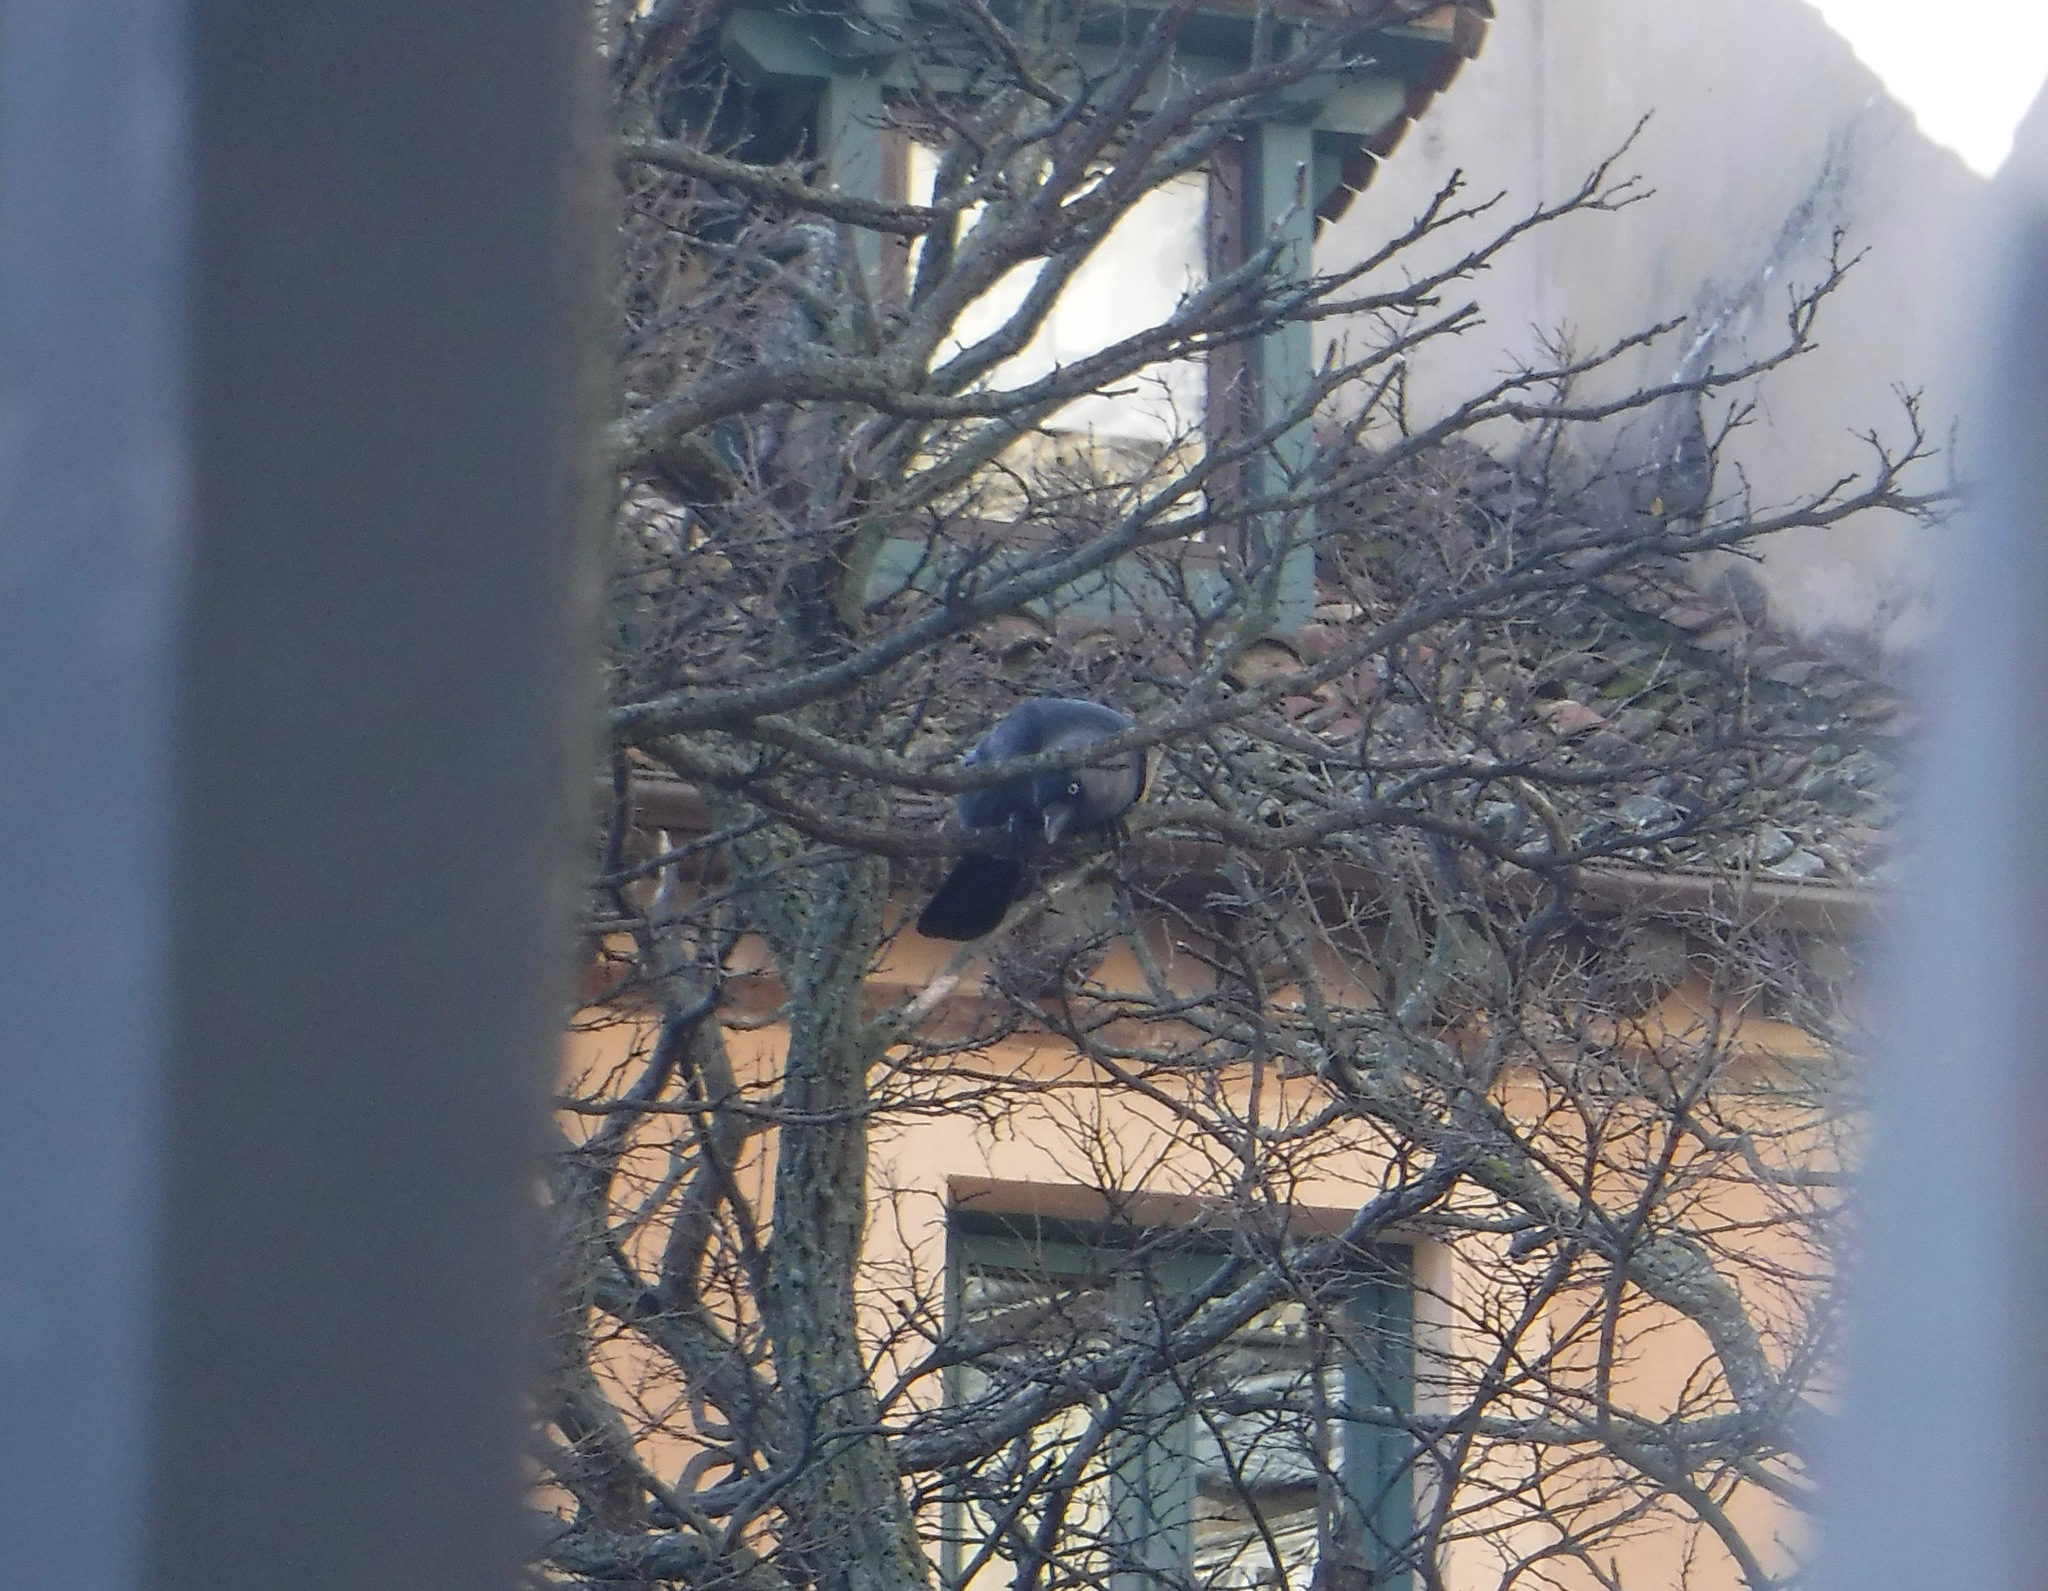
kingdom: Animalia
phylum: Chordata
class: Aves
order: Passeriformes
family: Corvidae
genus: Coloeus
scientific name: Coloeus monedula
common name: Western jackdaw
